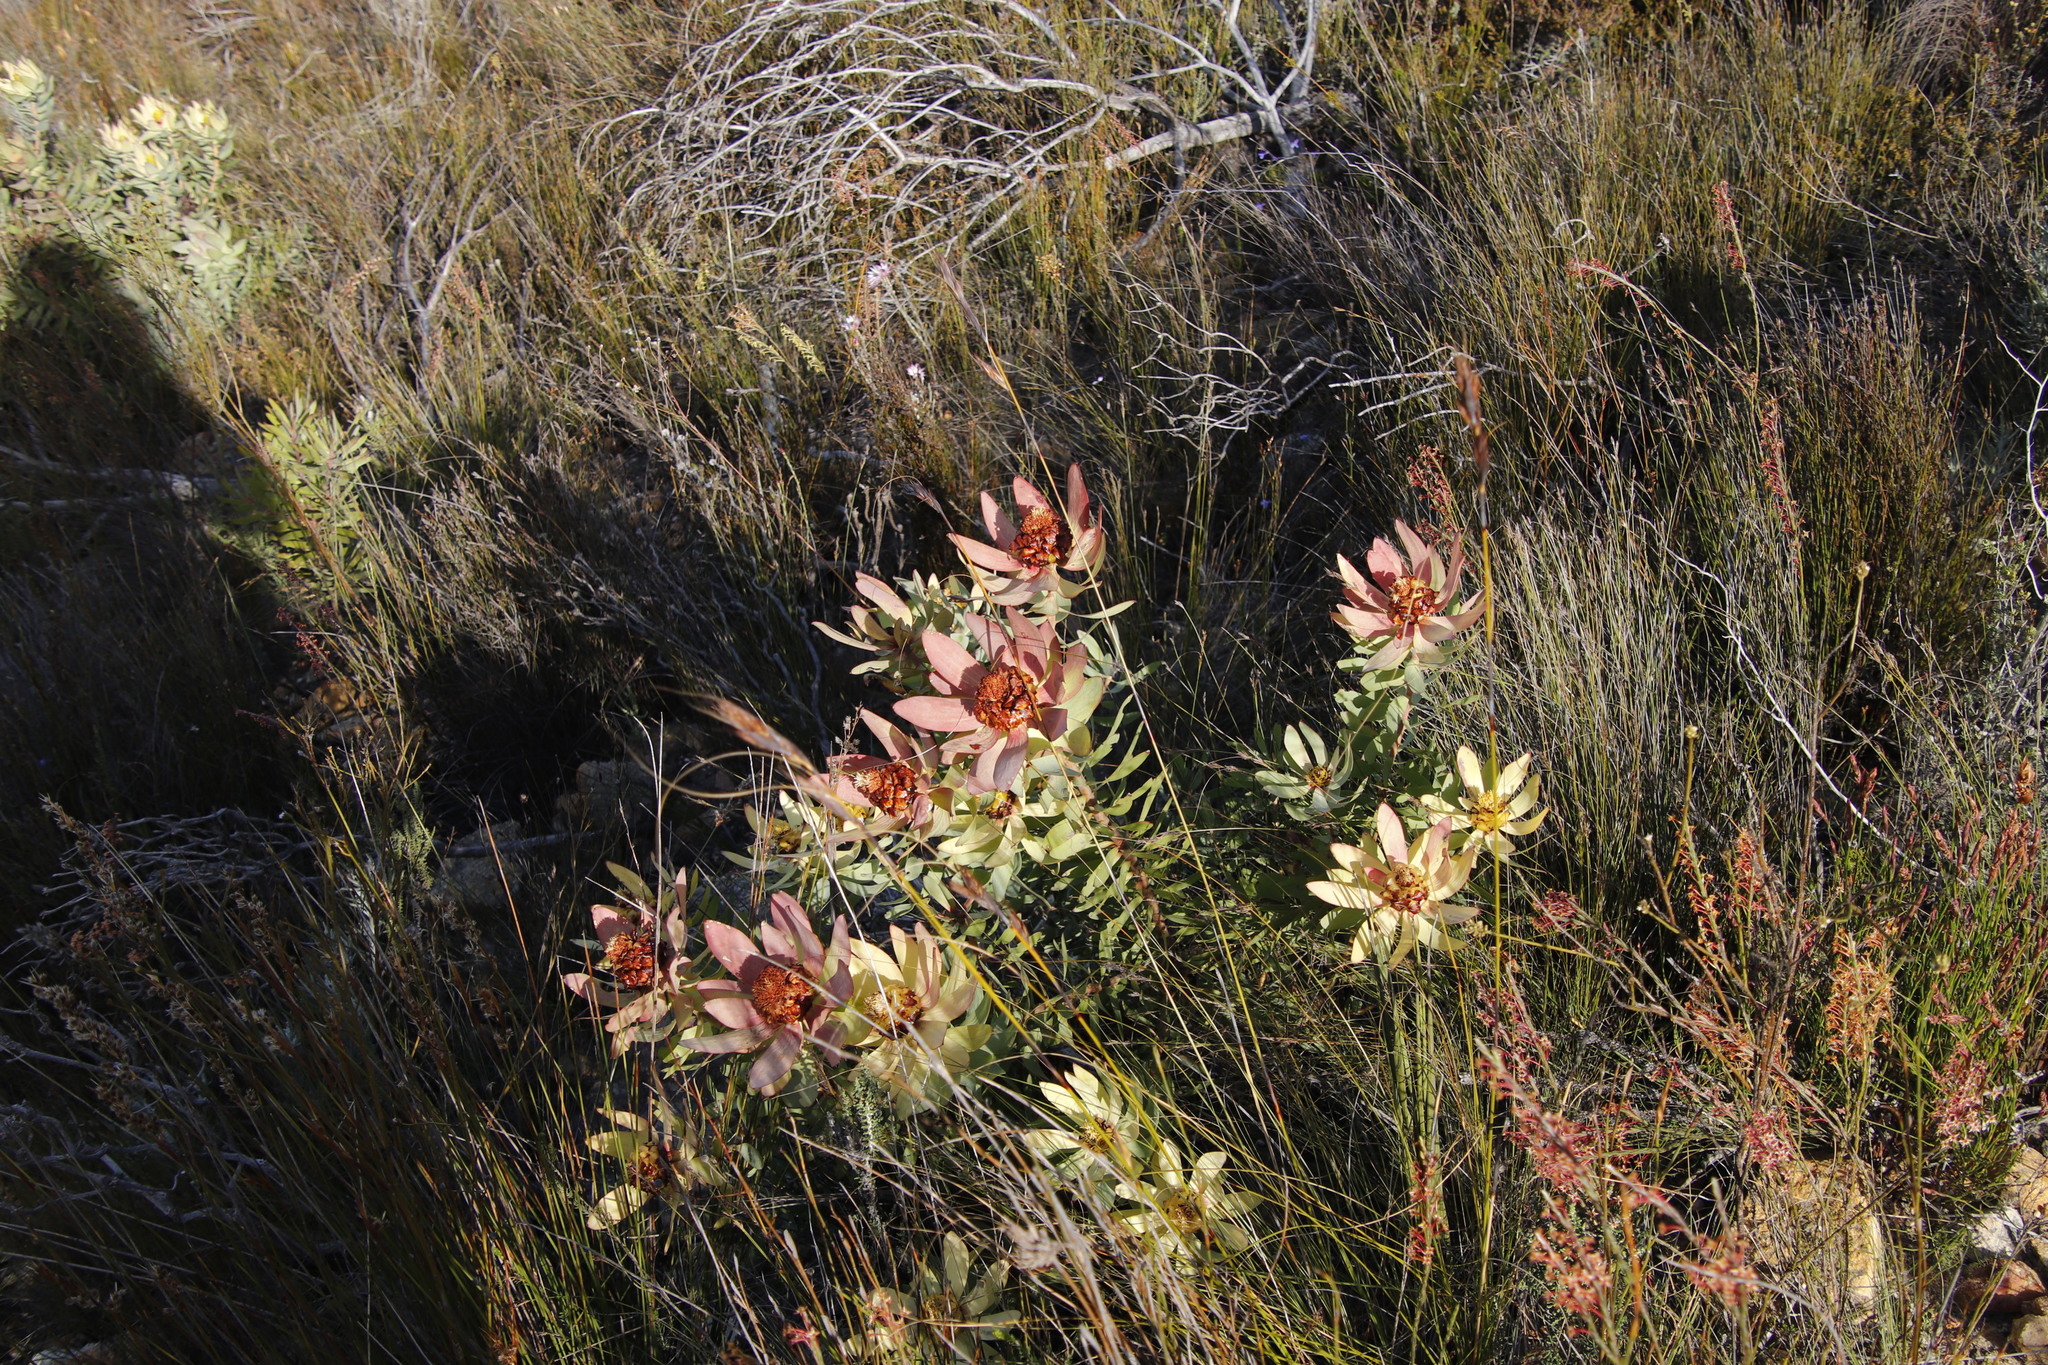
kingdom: Plantae
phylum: Tracheophyta
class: Magnoliopsida
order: Proteales
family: Proteaceae
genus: Leucadendron
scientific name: Leucadendron tinctum
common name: Spicy conebush
